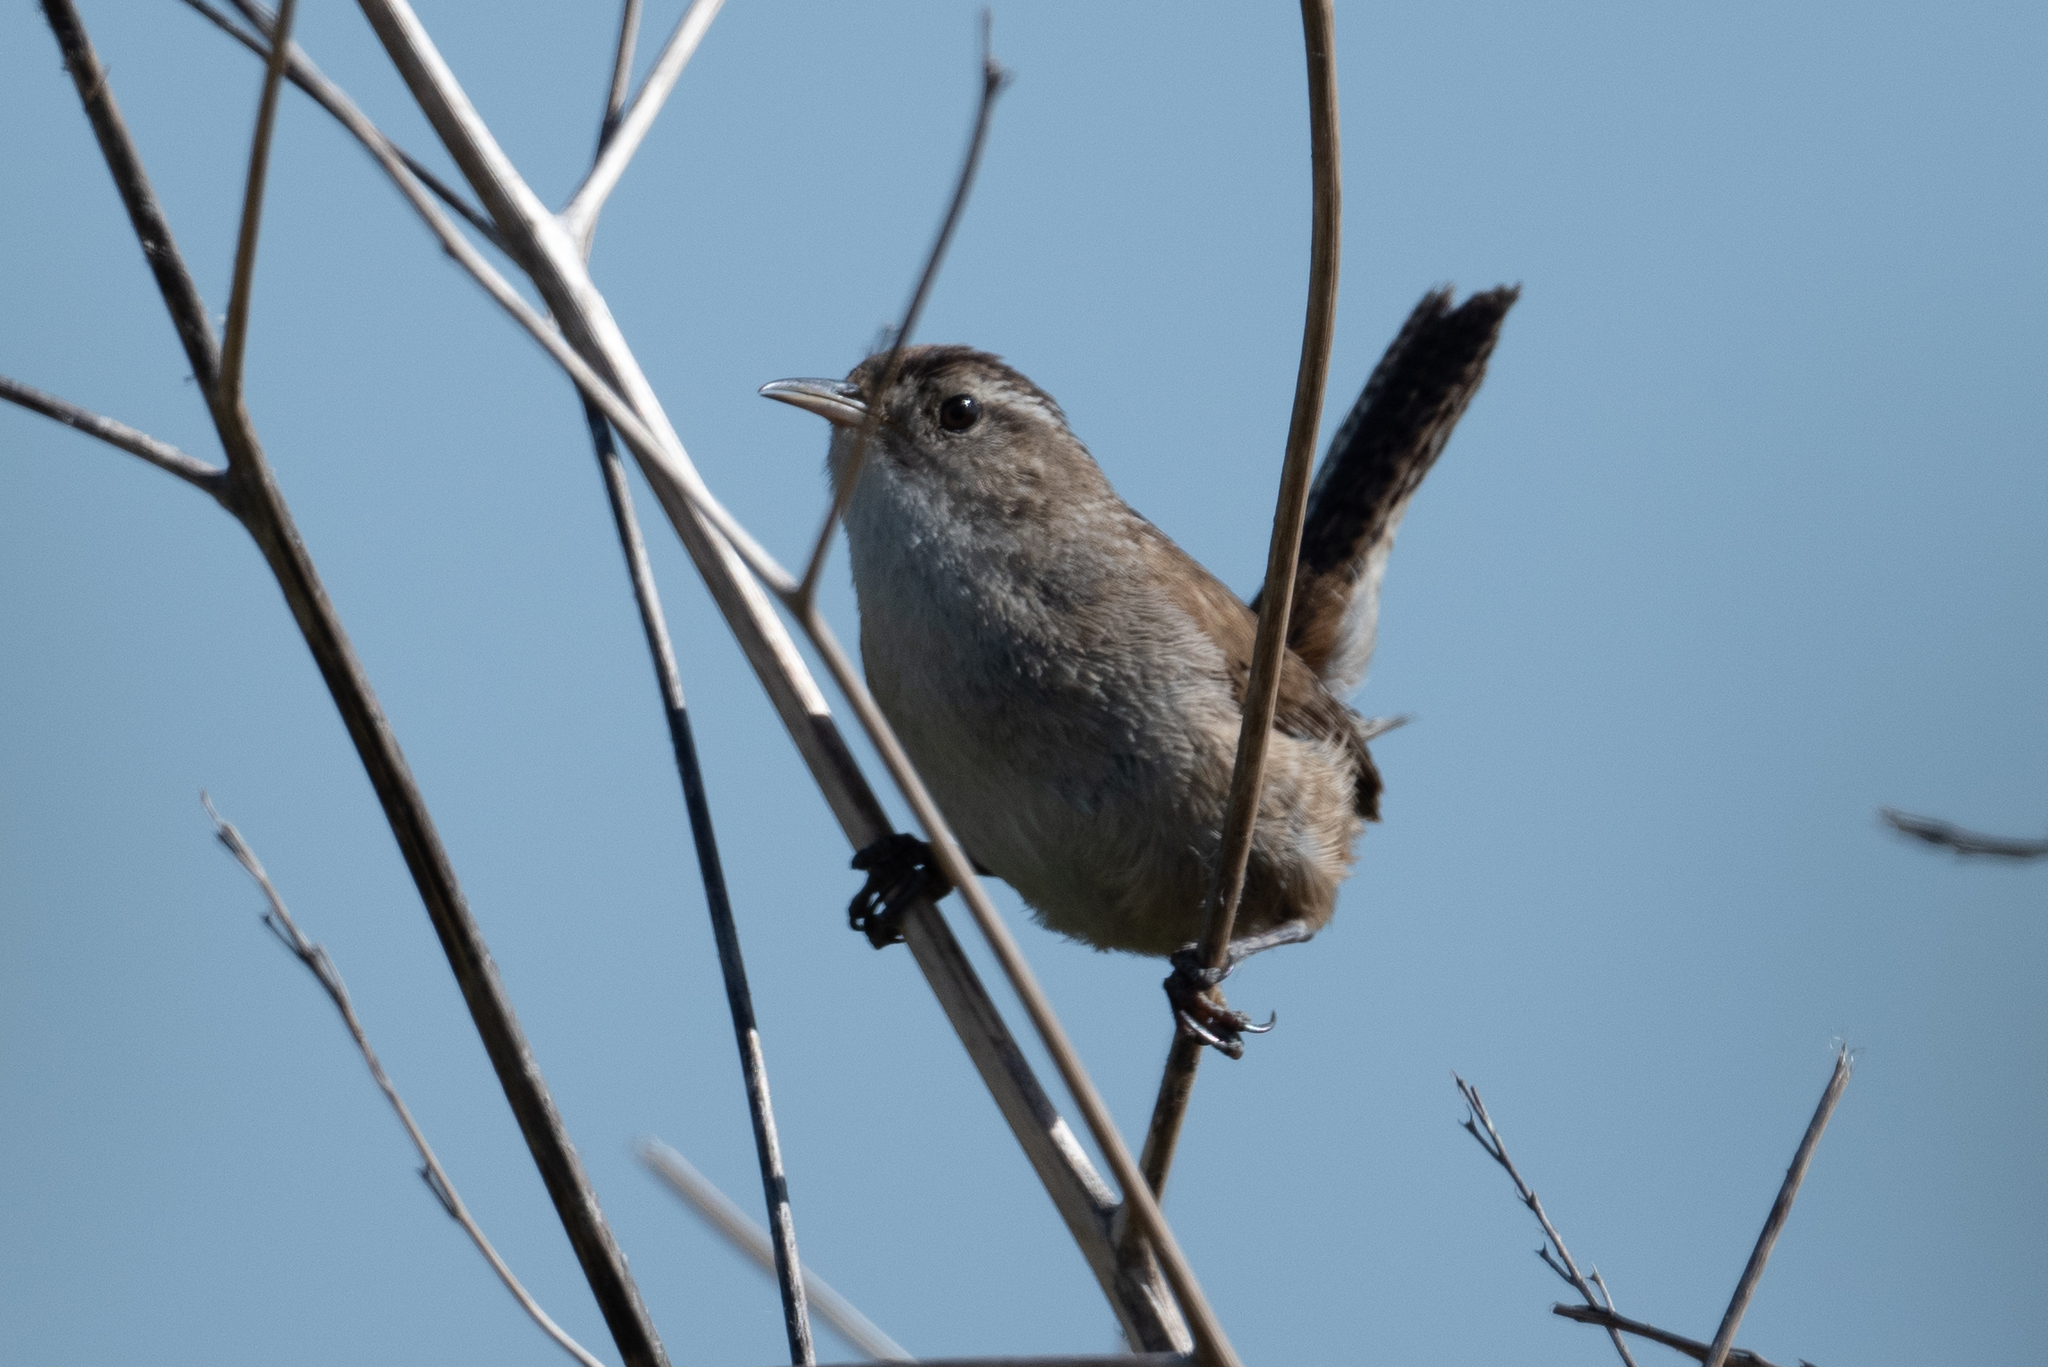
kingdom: Animalia
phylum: Chordata
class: Aves
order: Passeriformes
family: Troglodytidae
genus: Cistothorus
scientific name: Cistothorus palustris
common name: Marsh wren
